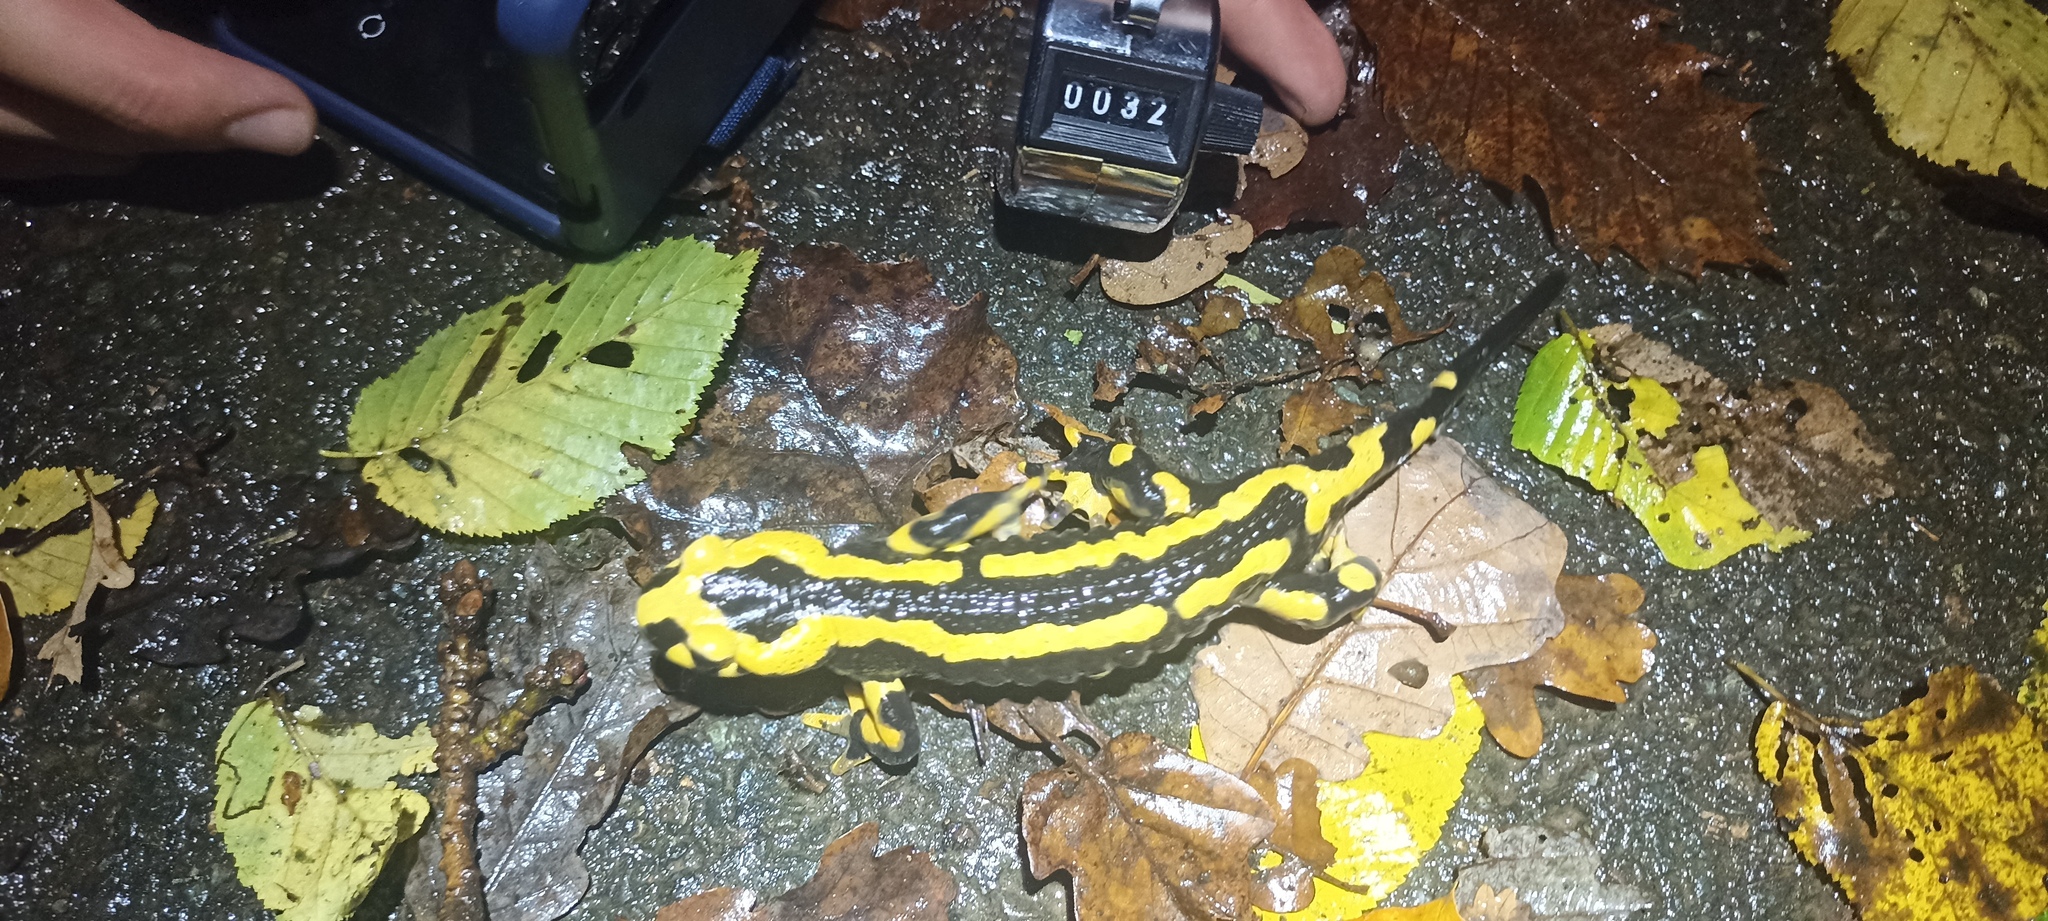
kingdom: Animalia
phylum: Chordata
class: Amphibia
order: Caudata
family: Salamandridae
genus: Salamandra
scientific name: Salamandra salamandra
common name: Fire salamander
